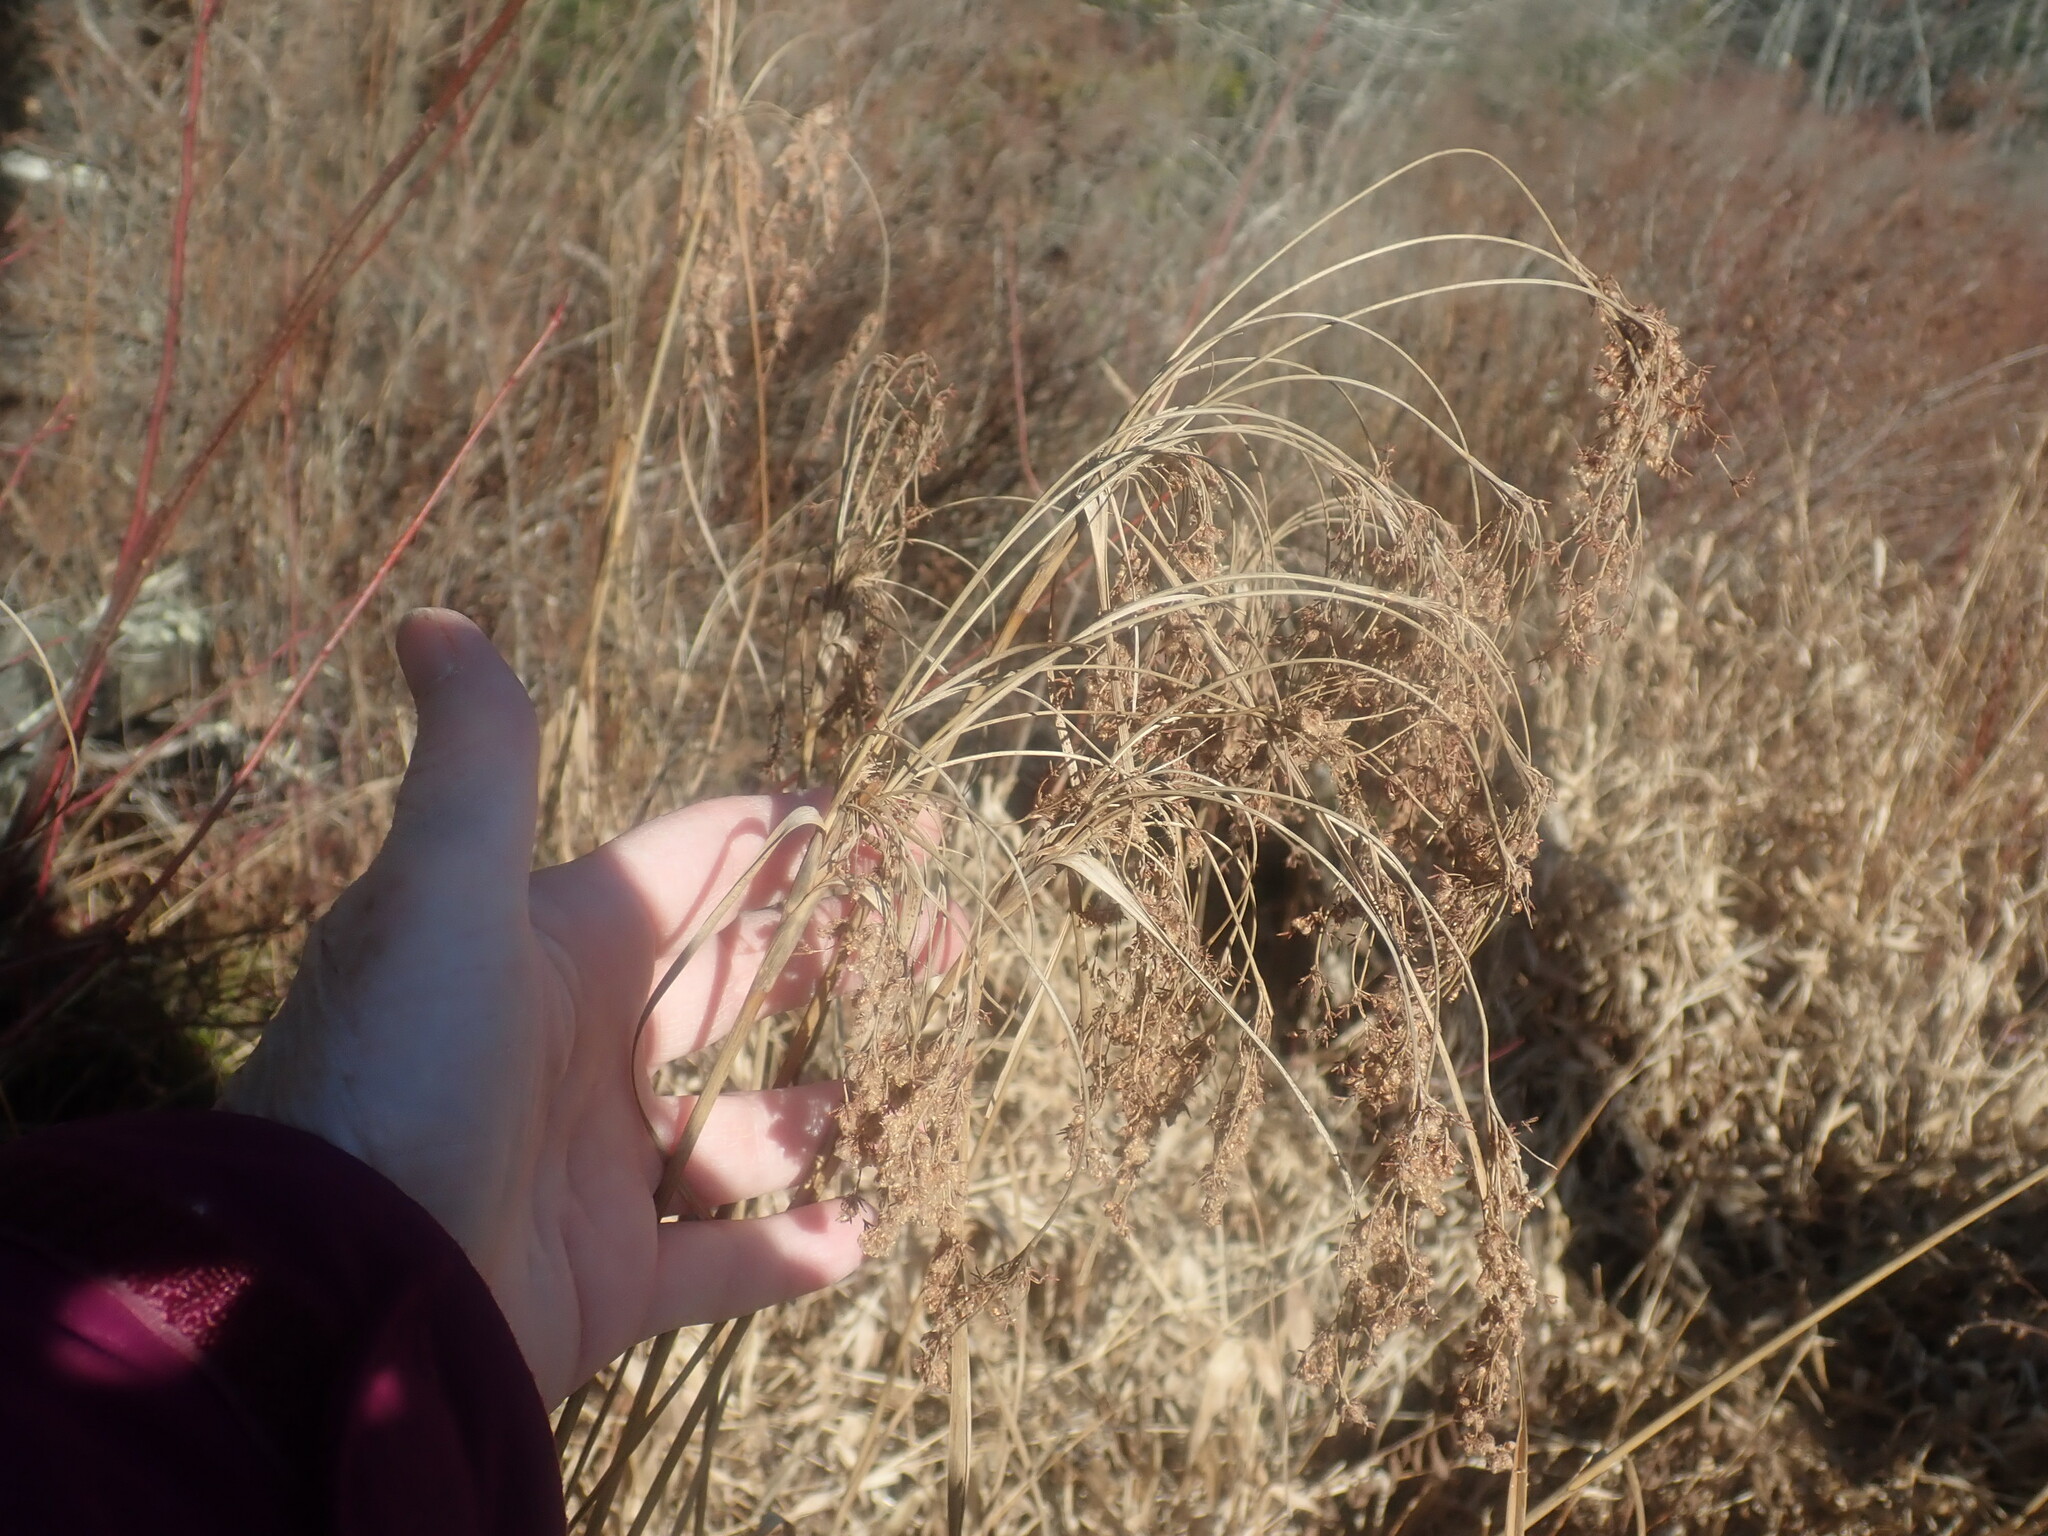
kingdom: Plantae
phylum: Tracheophyta
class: Liliopsida
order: Poales
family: Cyperaceae
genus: Scirpus
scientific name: Scirpus
